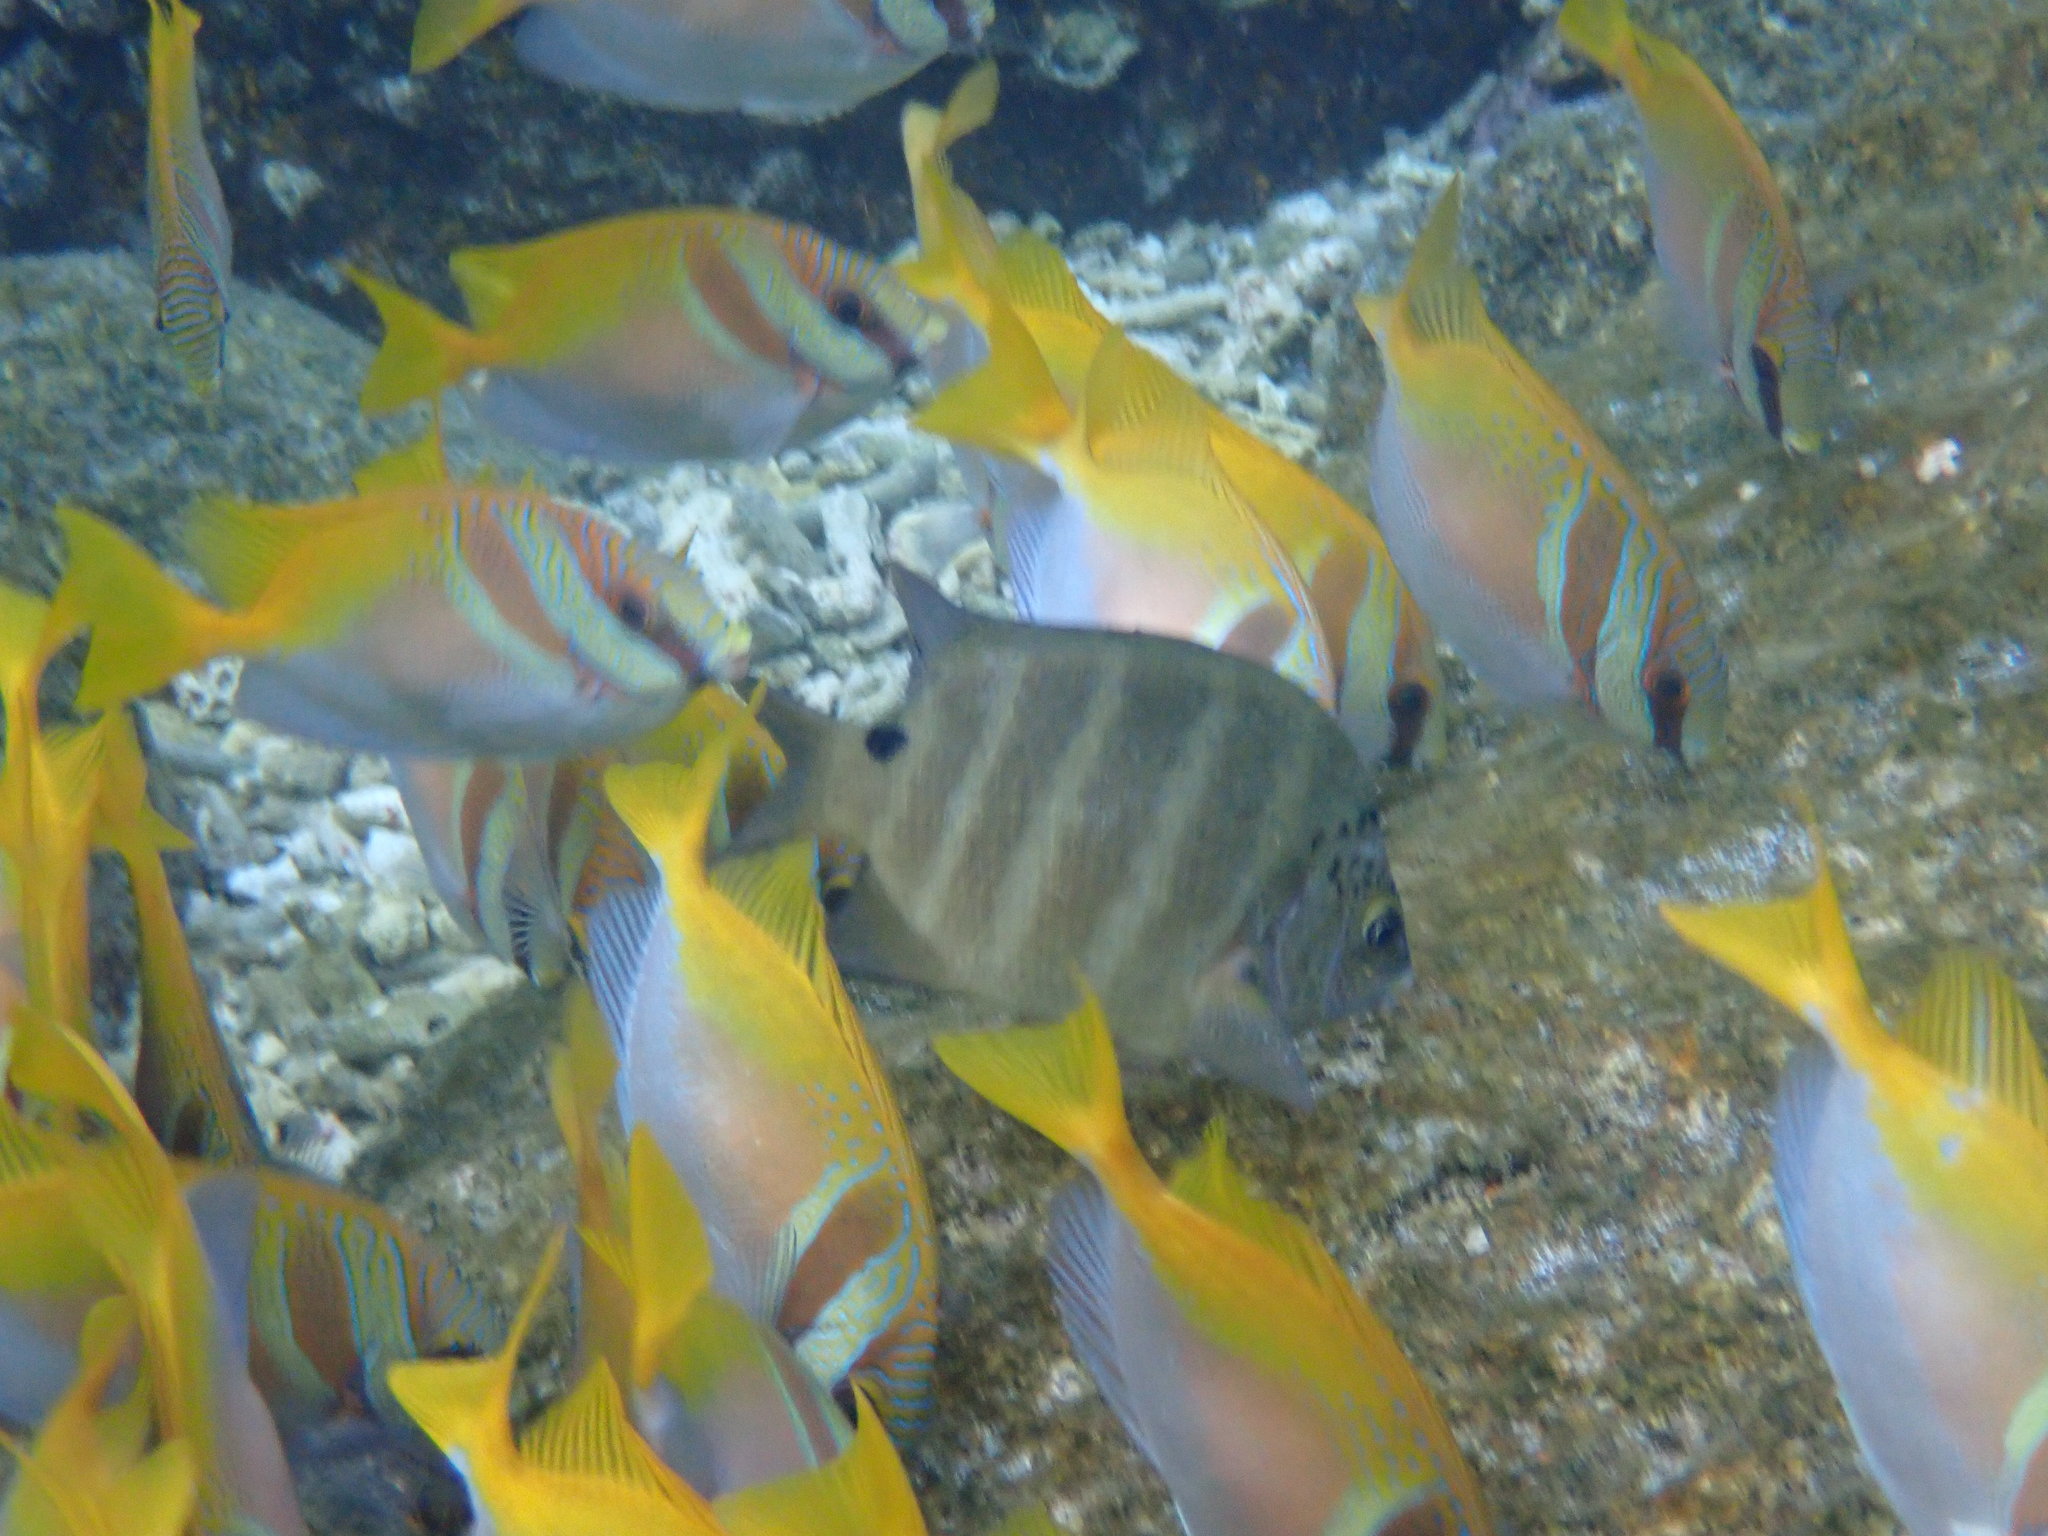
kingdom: Animalia
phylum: Chordata
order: Perciformes
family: Pomacentridae
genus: Abudefduf
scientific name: Abudefduf sordidus
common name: Blackspot sergeant
